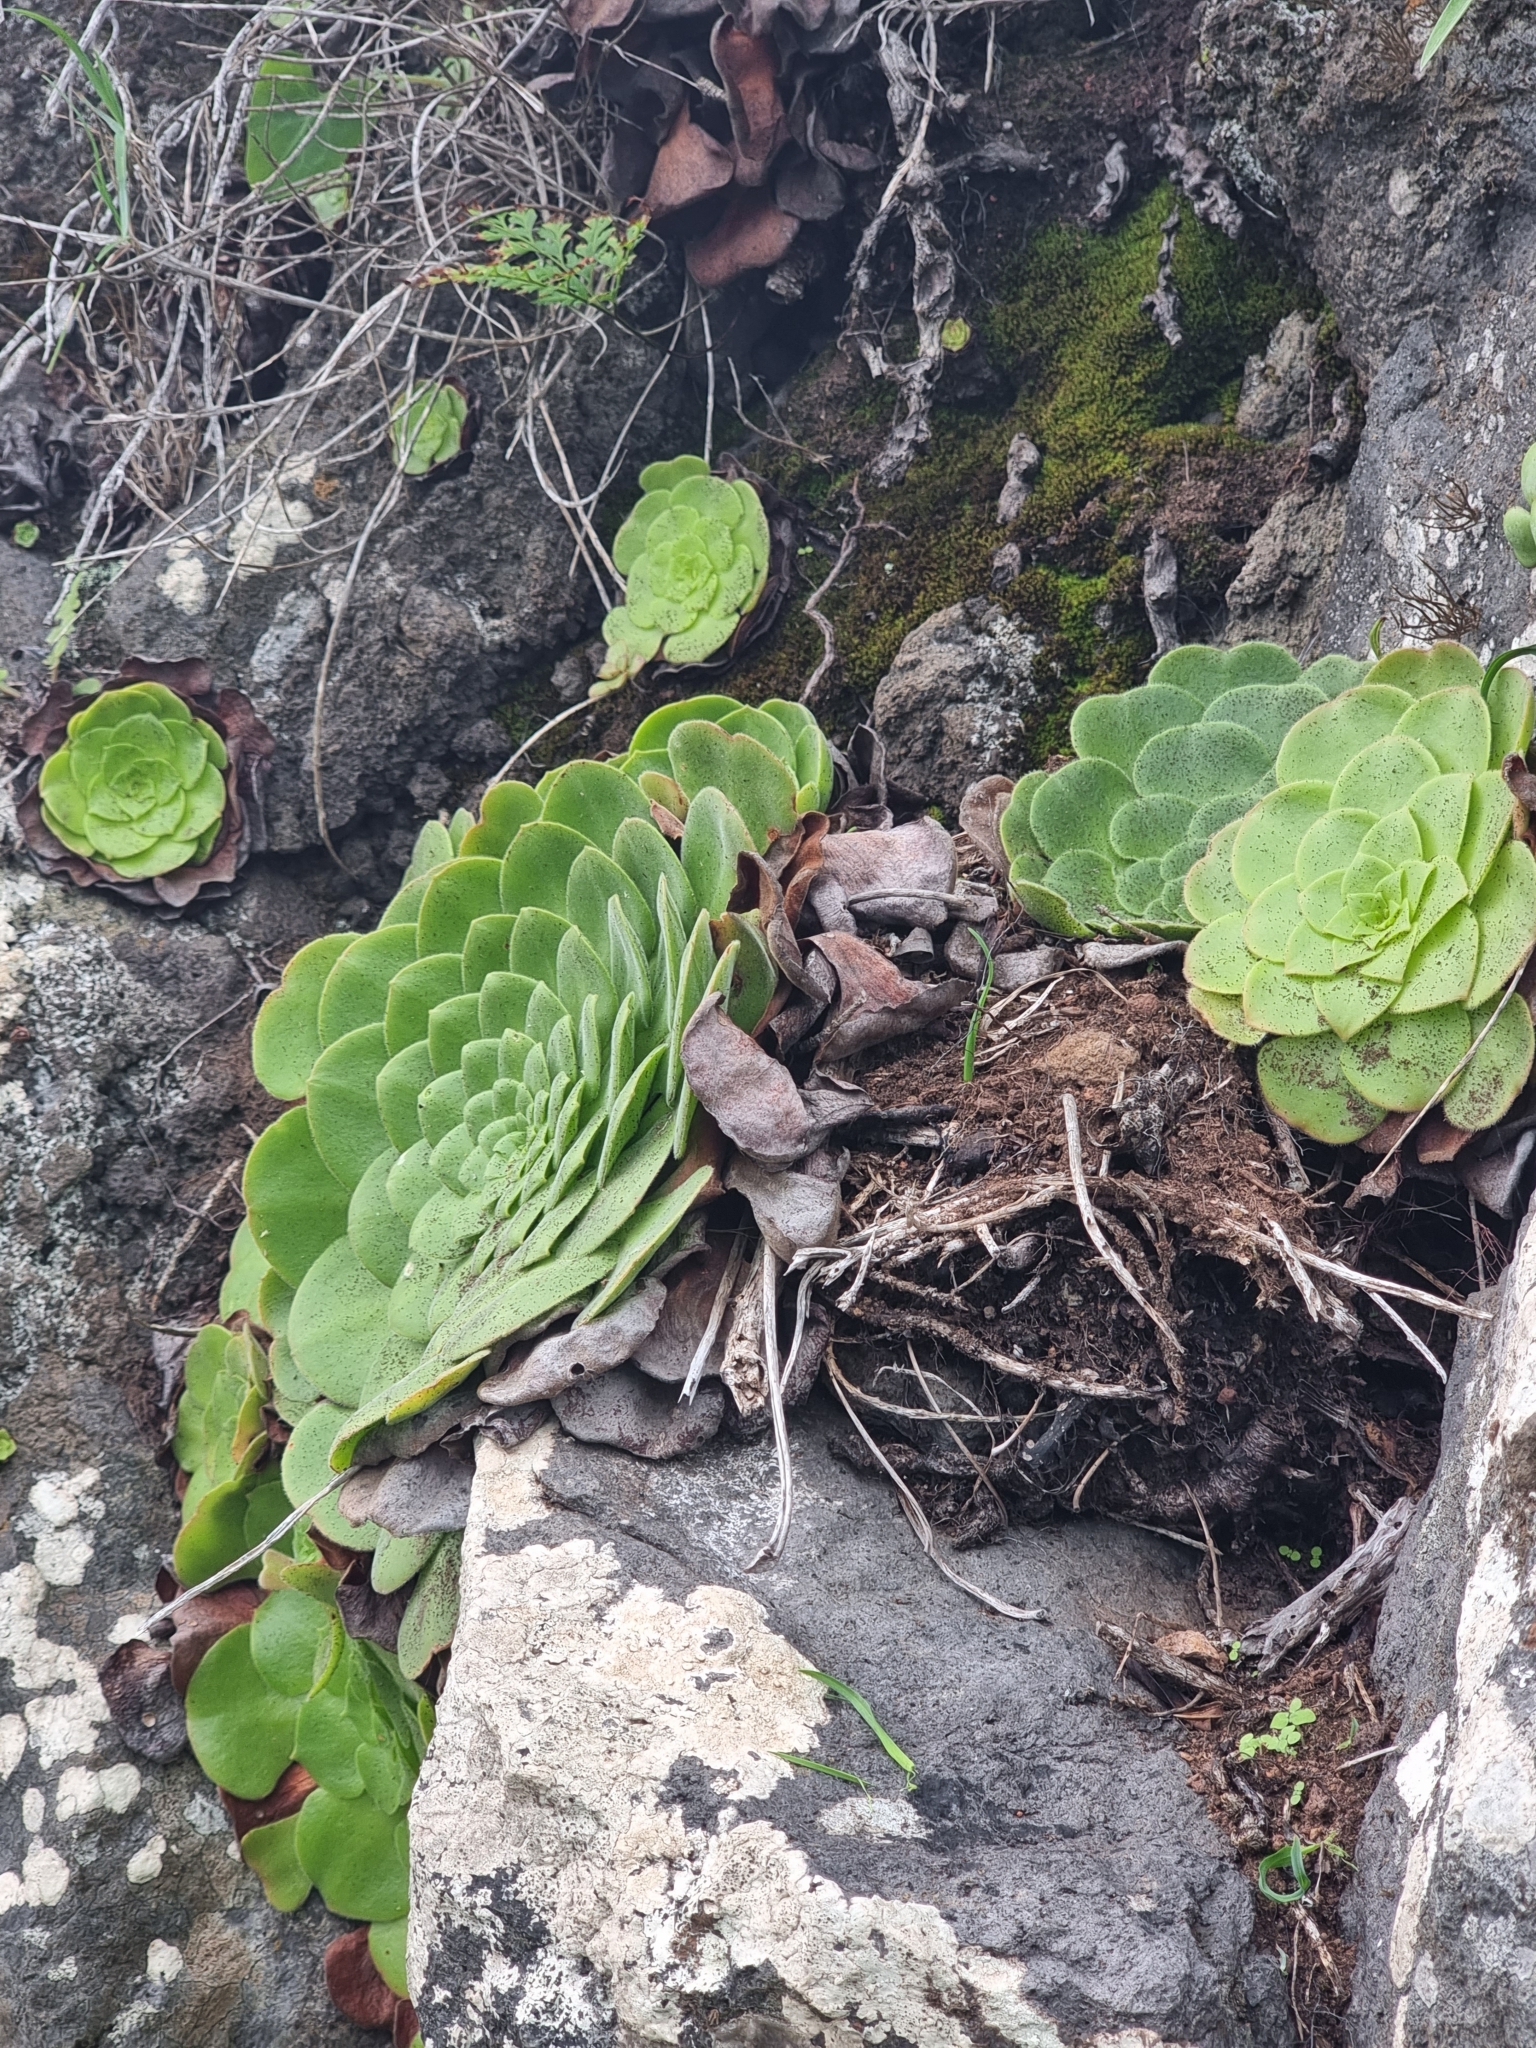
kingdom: Plantae
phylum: Tracheophyta
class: Magnoliopsida
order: Saxifragales
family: Crassulaceae
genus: Aeonium
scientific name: Aeonium glandulosum
